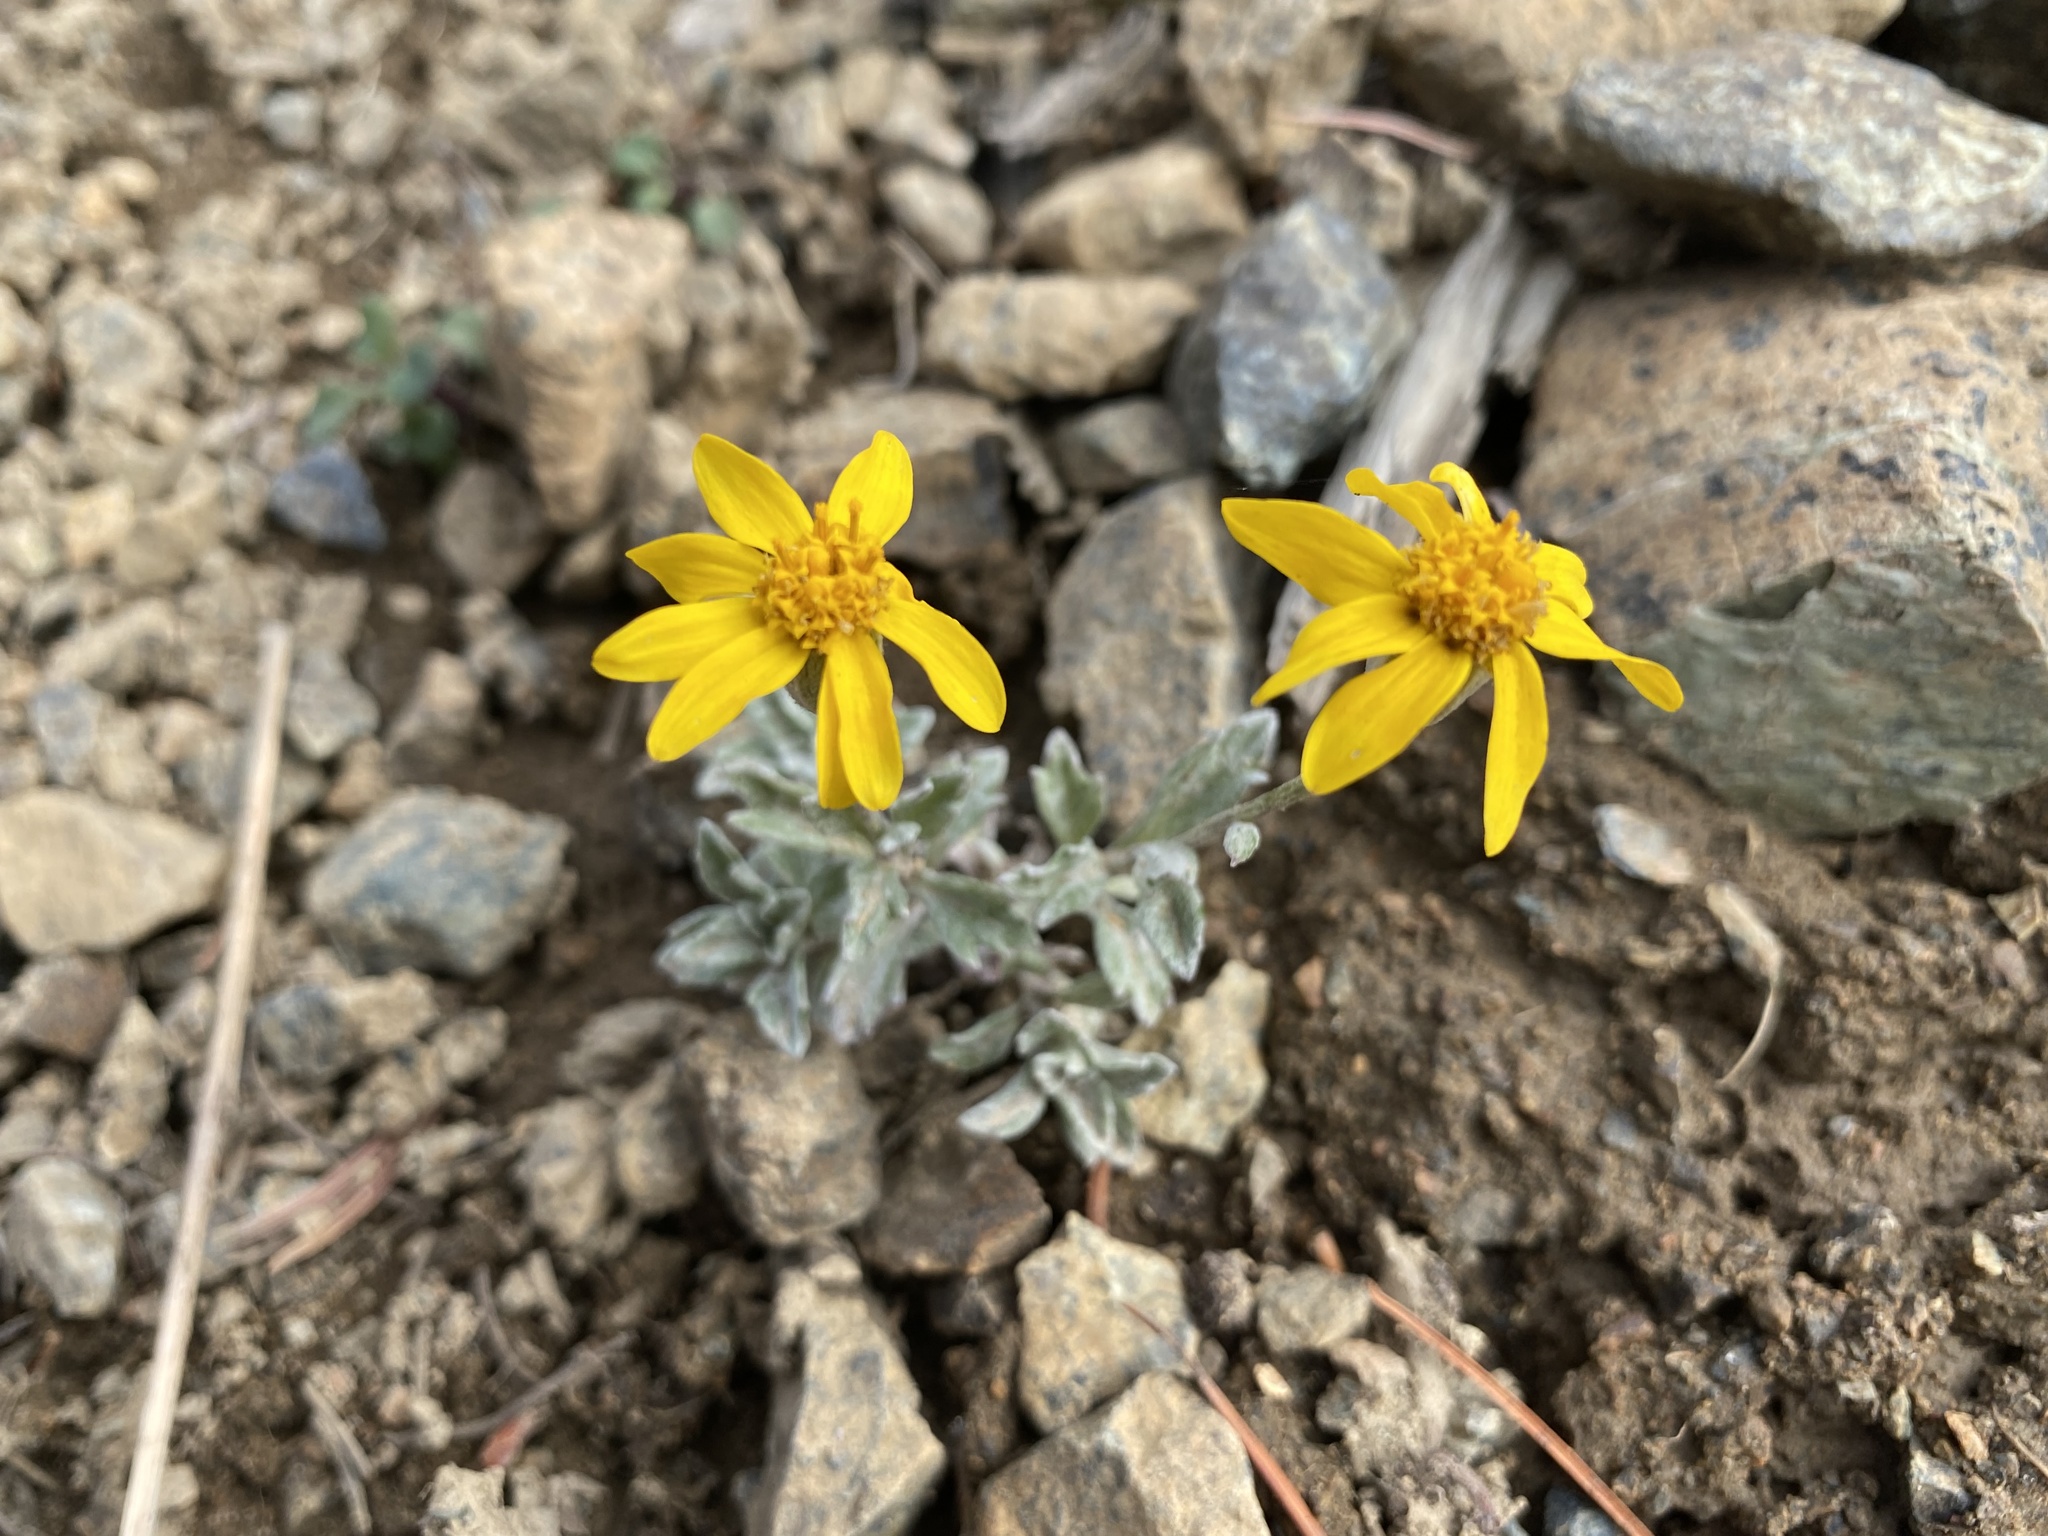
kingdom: Plantae
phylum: Tracheophyta
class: Magnoliopsida
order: Asterales
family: Asteraceae
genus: Eriophyllum
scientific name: Eriophyllum lanatum
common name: Common woolly-sunflower
